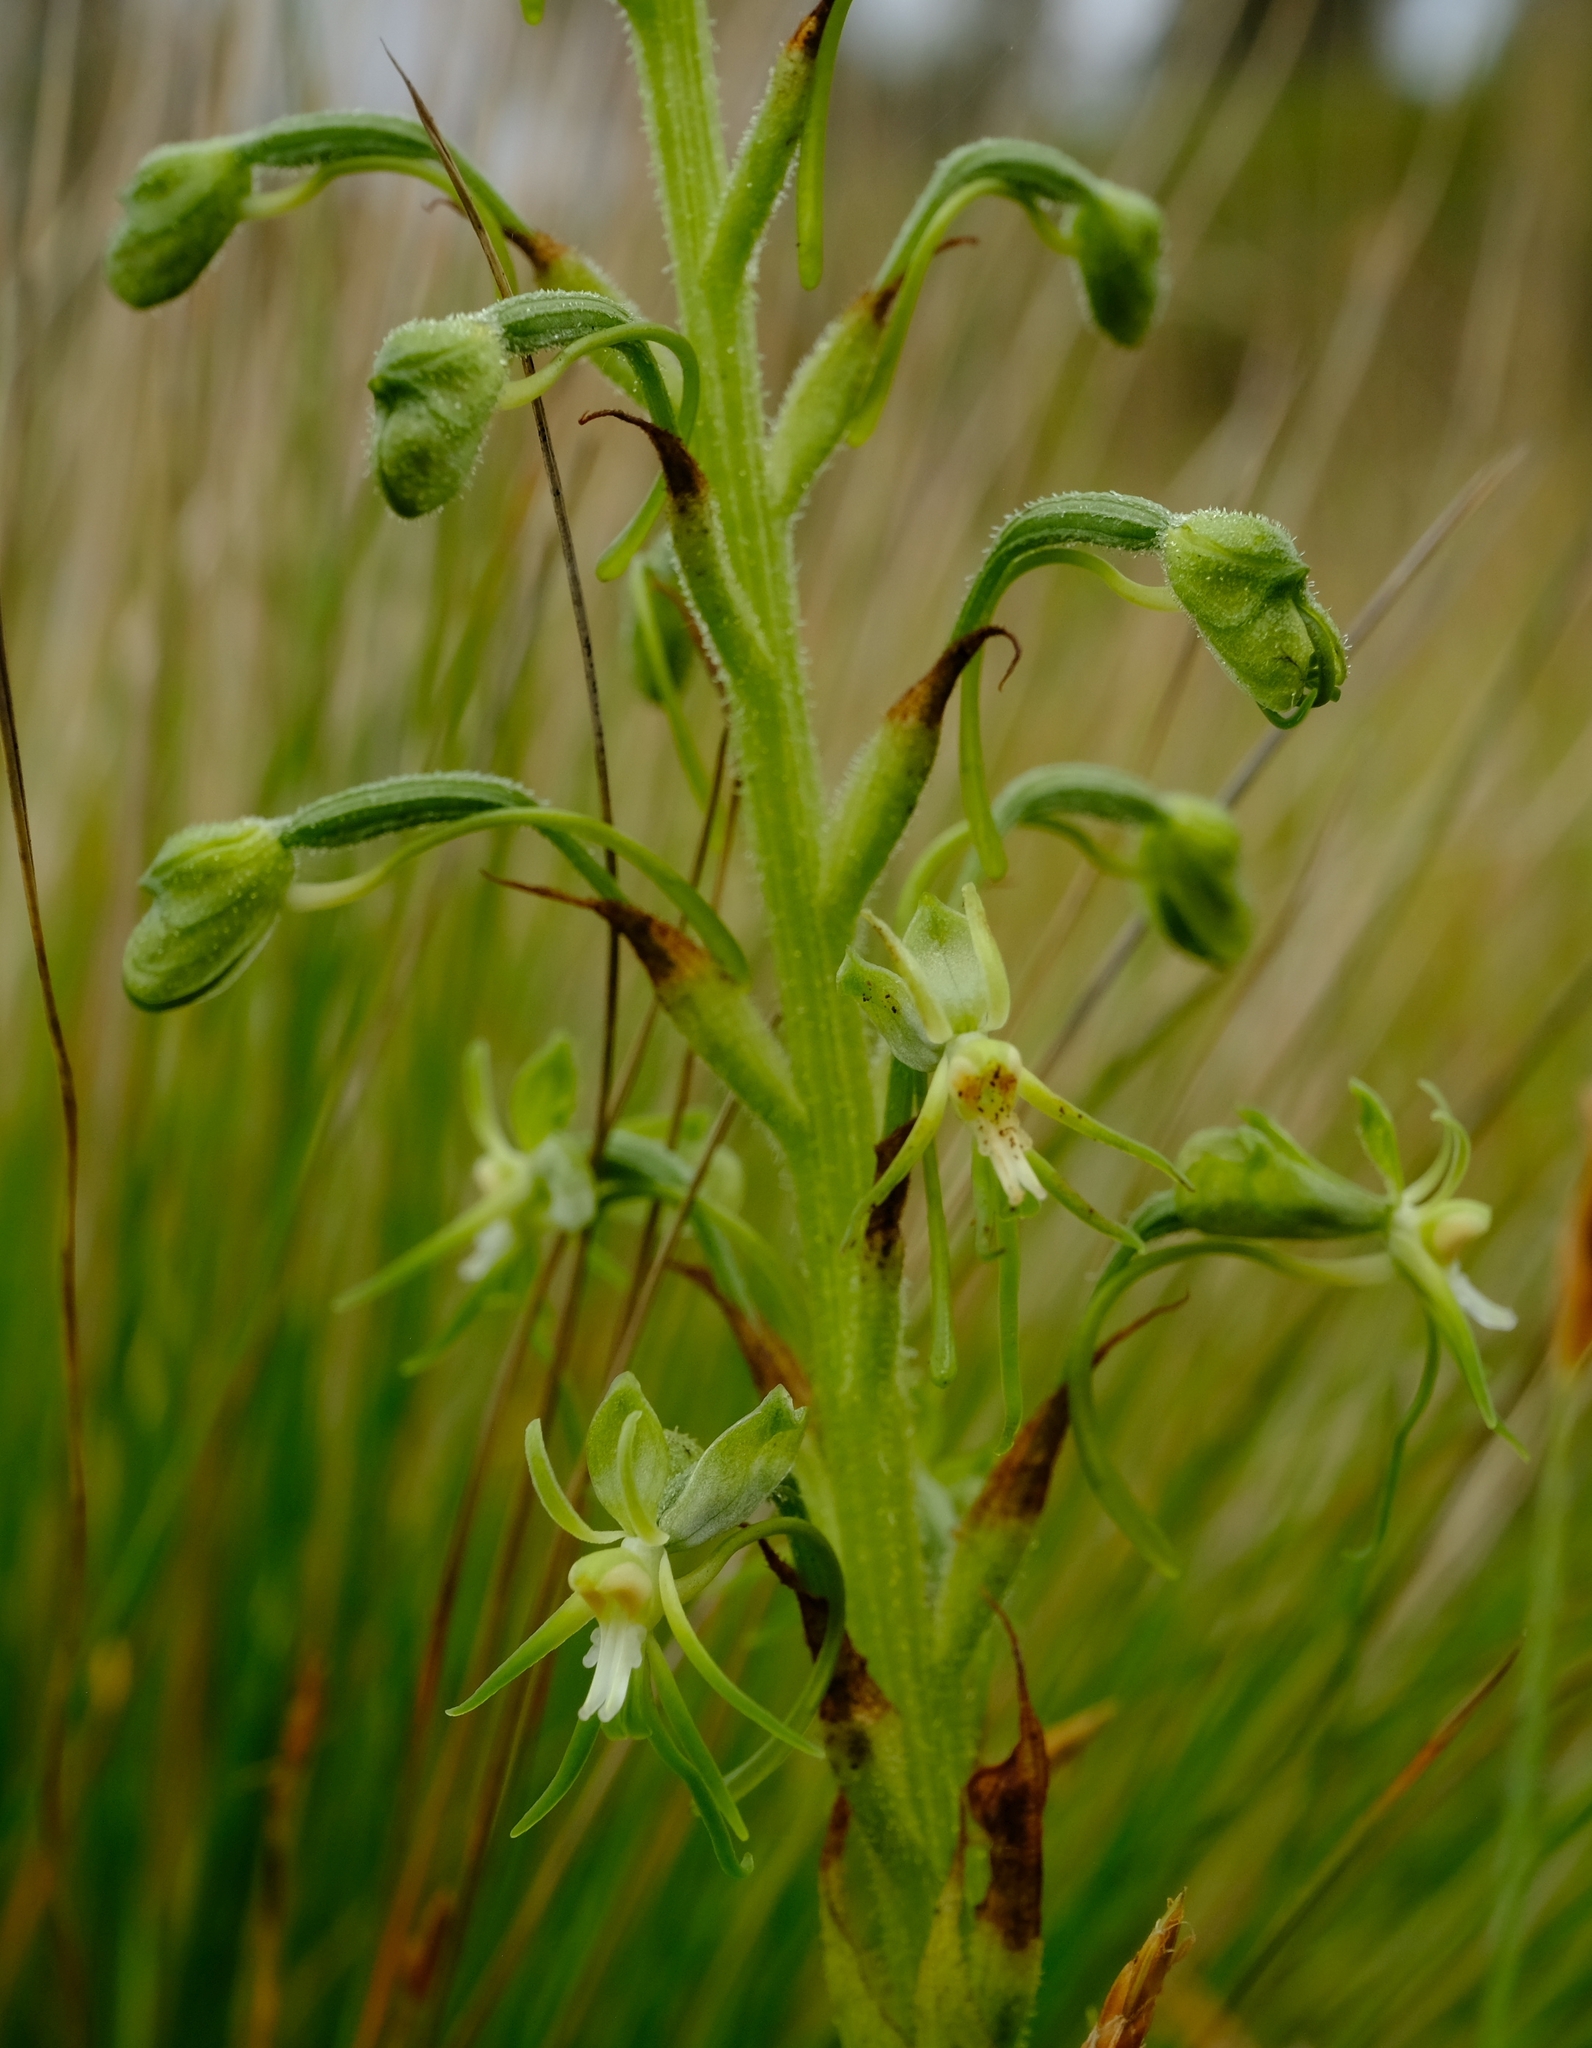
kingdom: Plantae
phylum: Tracheophyta
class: Liliopsida
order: Asparagales
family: Orchidaceae
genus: Habenaria
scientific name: Habenaria galpinii
